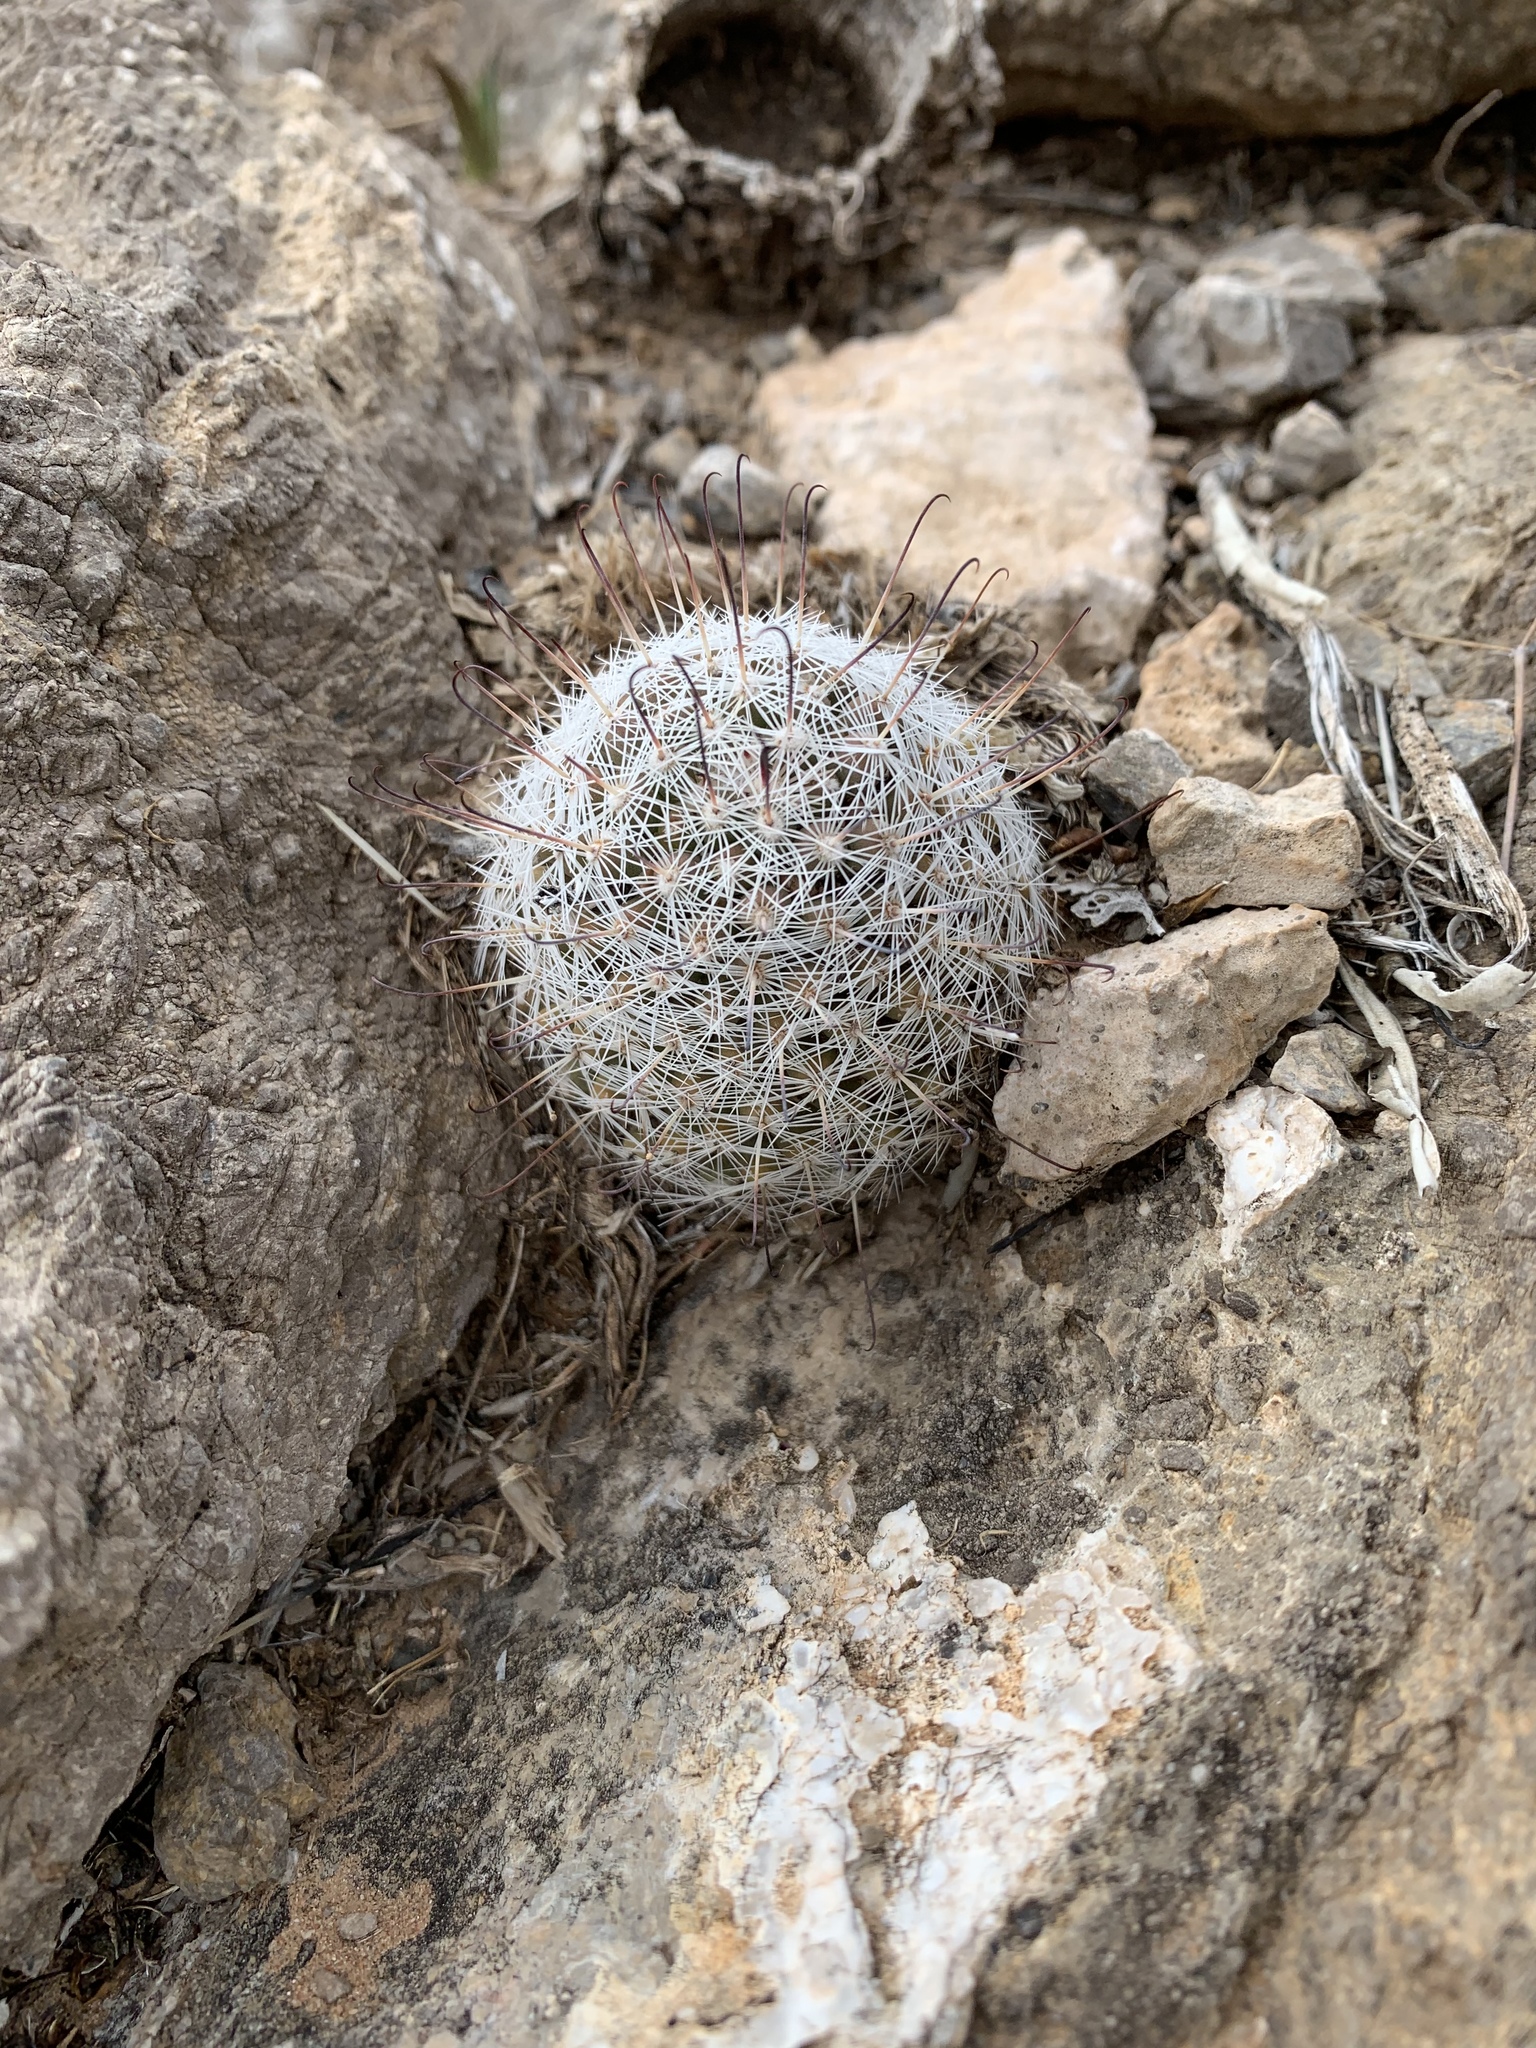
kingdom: Plantae
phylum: Tracheophyta
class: Magnoliopsida
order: Caryophyllales
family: Cactaceae
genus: Cochemiea
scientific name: Cochemiea grahamii
